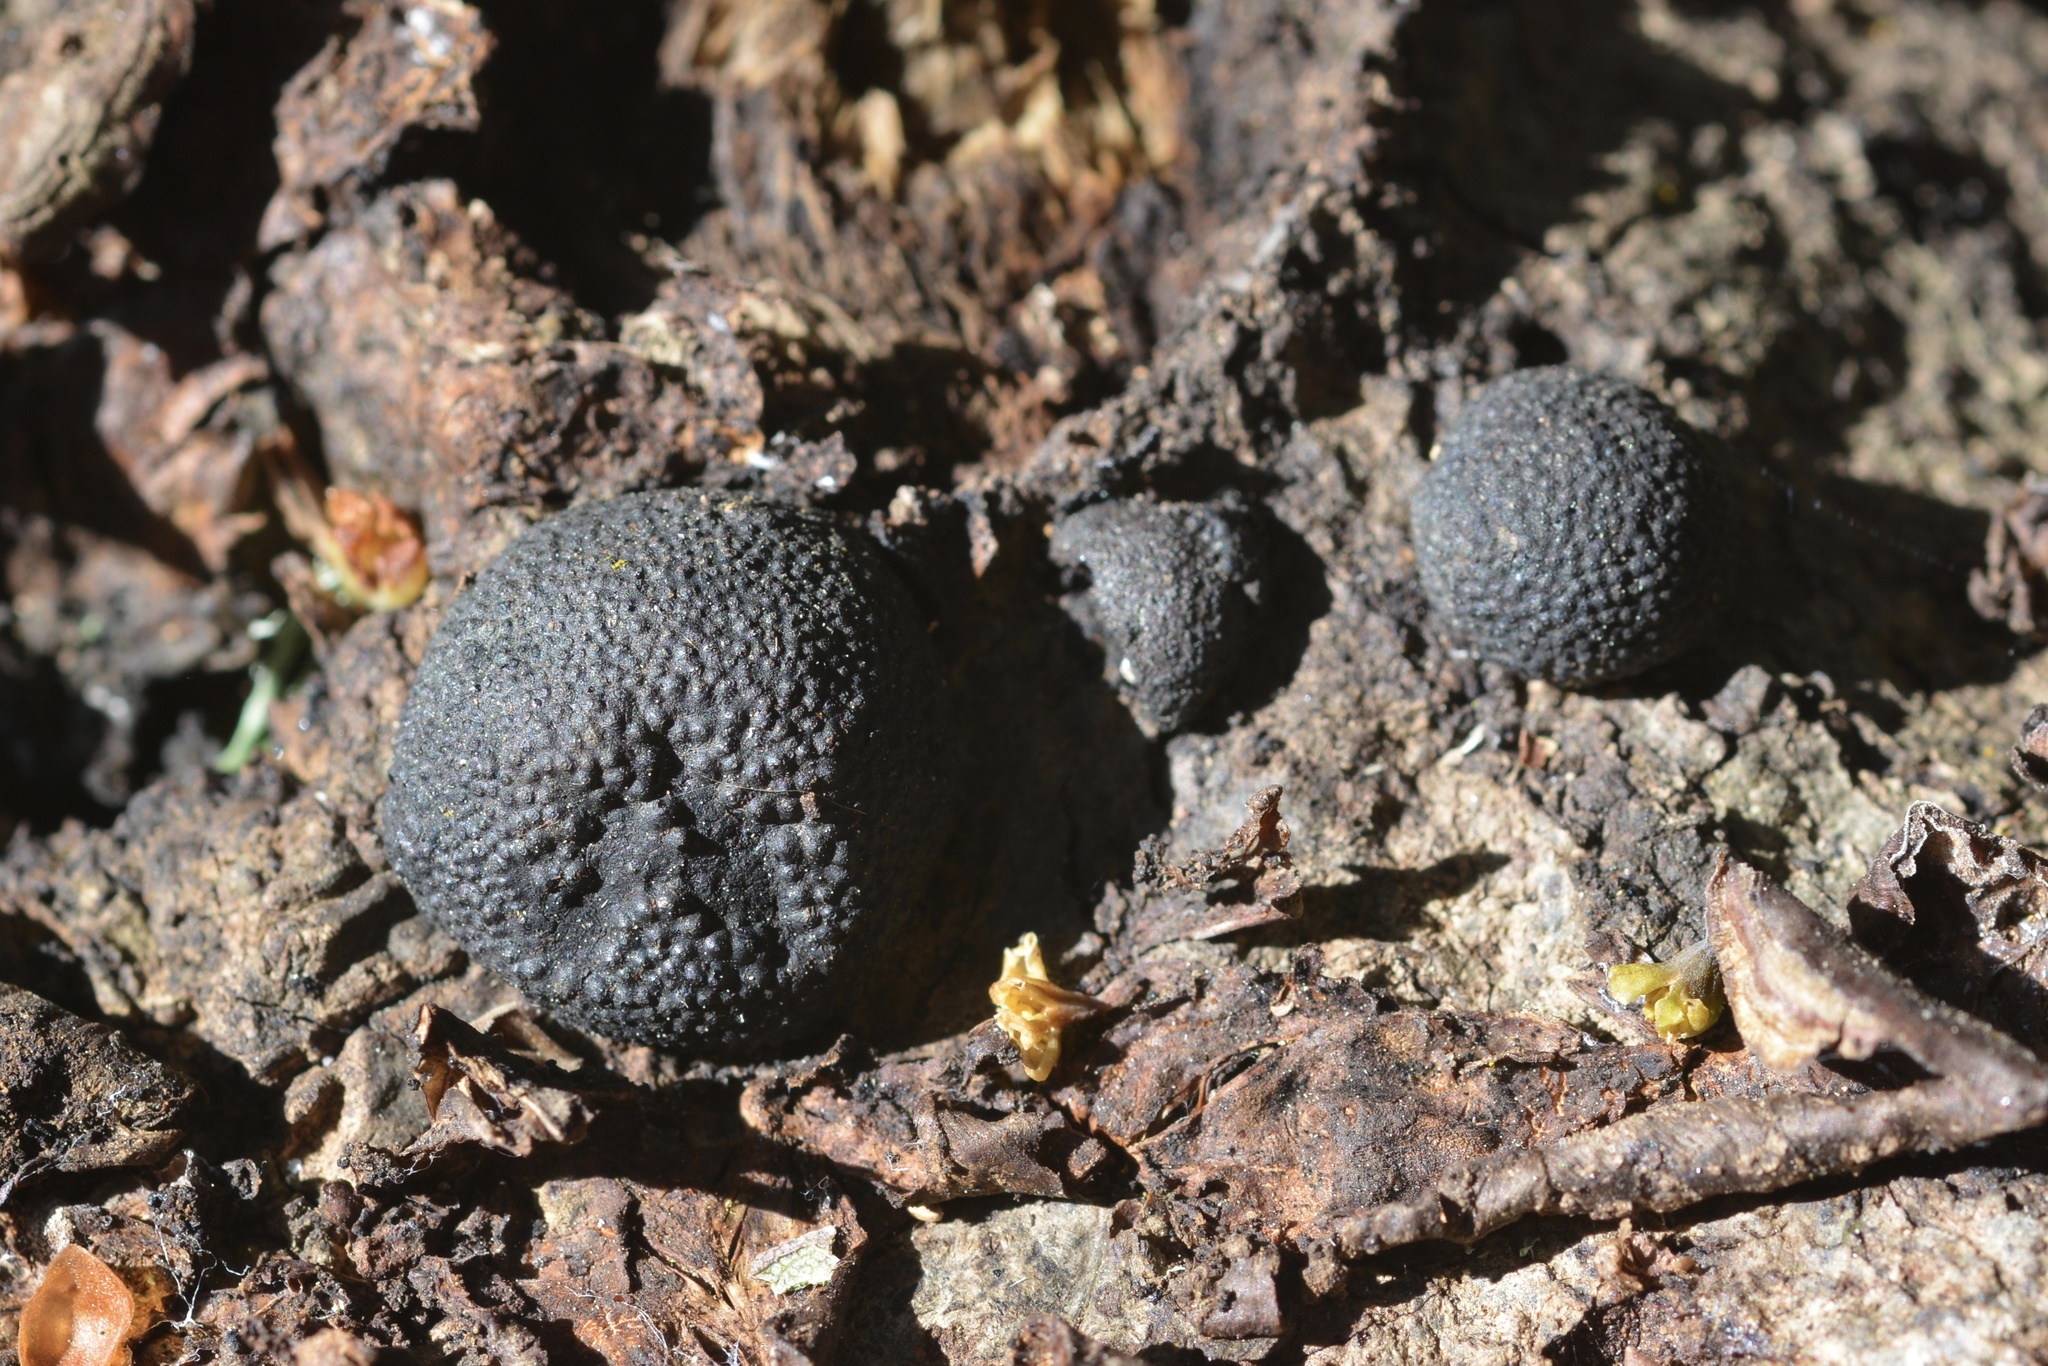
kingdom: Fungi
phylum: Ascomycota
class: Sordariomycetes
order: Xylariales
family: Hypoxylaceae
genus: Annulohypoxylon
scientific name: Annulohypoxylon thouarsianum
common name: Cramp balls
